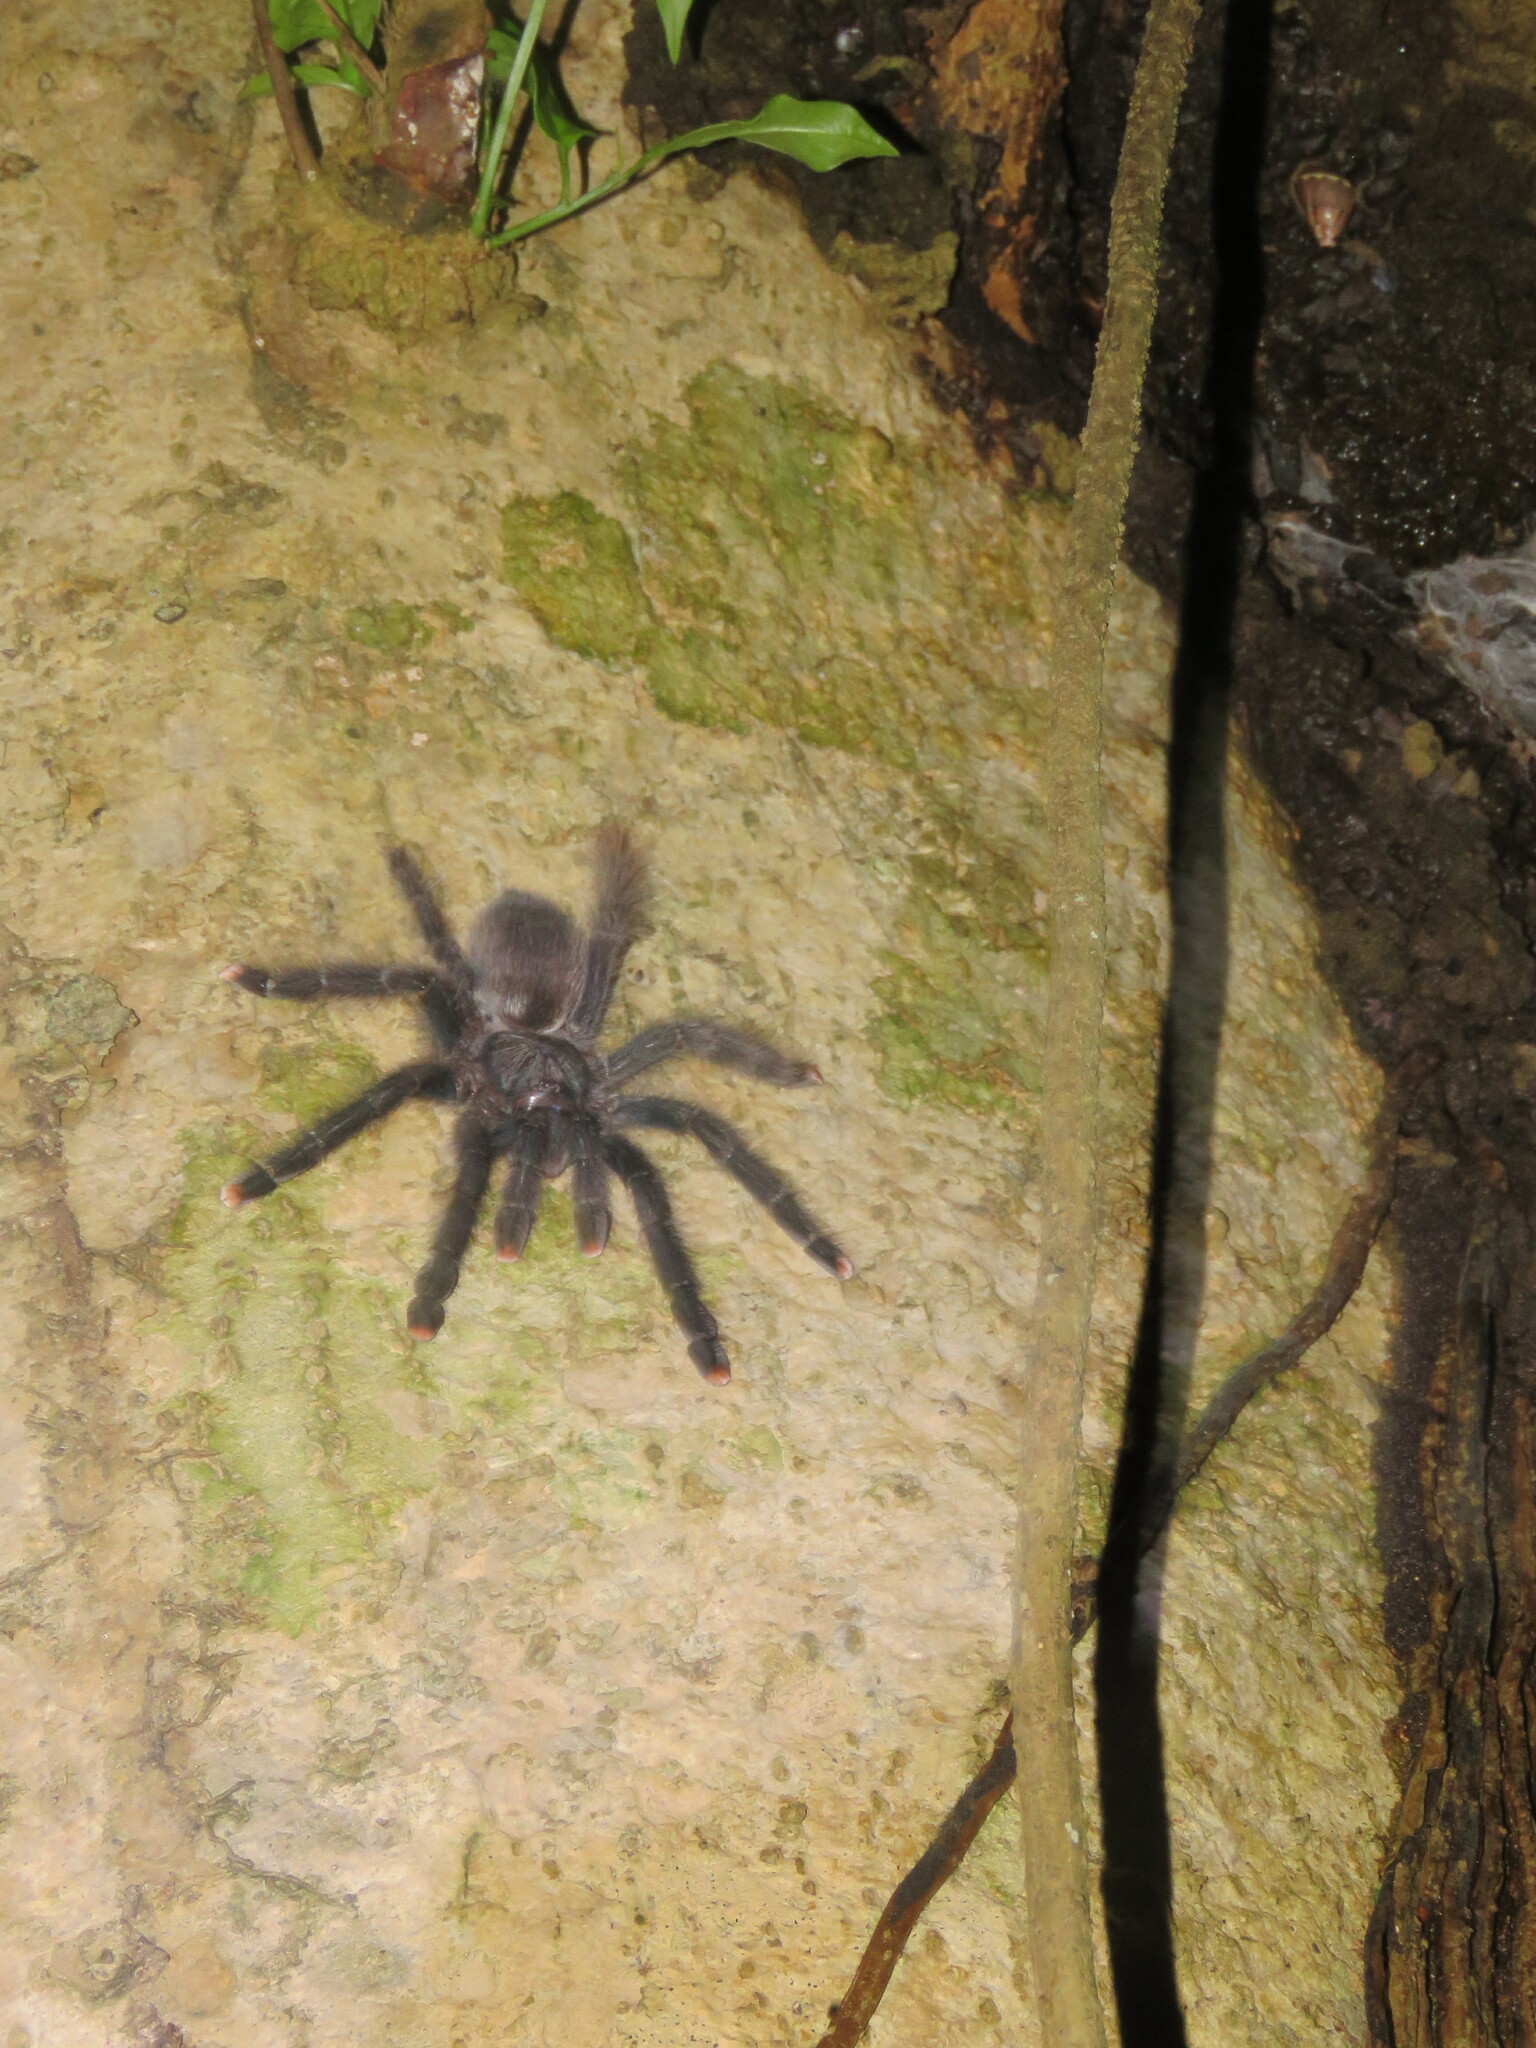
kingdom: Animalia
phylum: Arthropoda
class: Arachnida
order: Araneae
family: Theraphosidae
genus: Avicularia
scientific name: Avicularia avicularia
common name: Tarantula spiders
